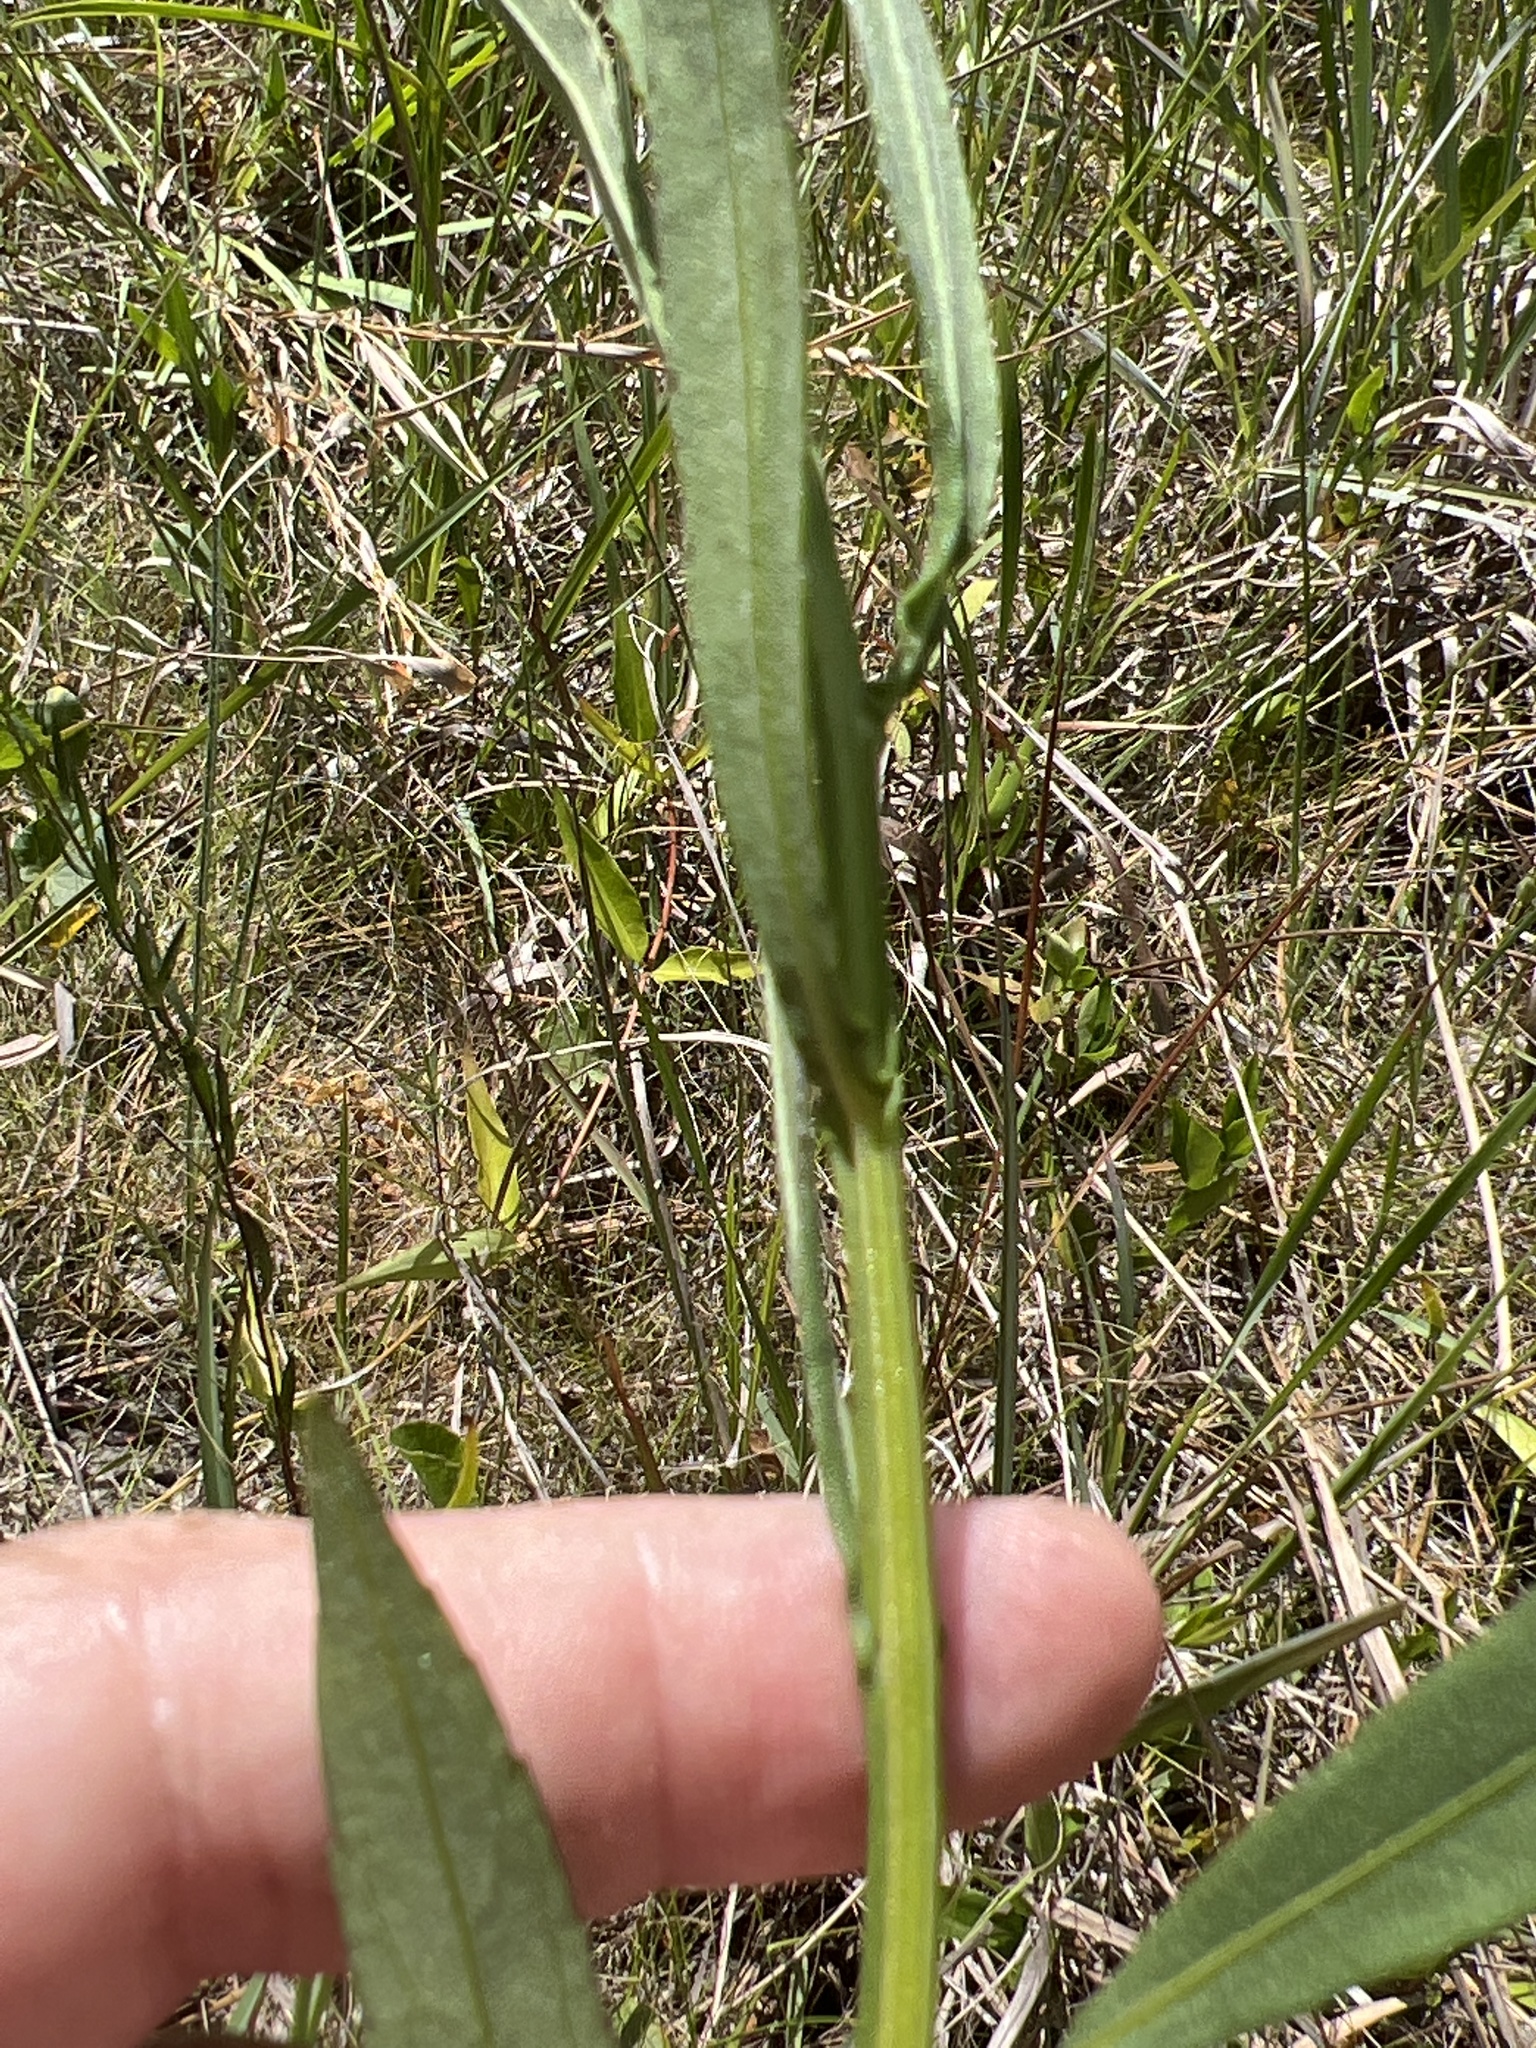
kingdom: Plantae
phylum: Tracheophyta
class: Magnoliopsida
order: Asterales
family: Asteraceae
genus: Helenium
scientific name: Helenium autumnale
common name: Sneezeweed
